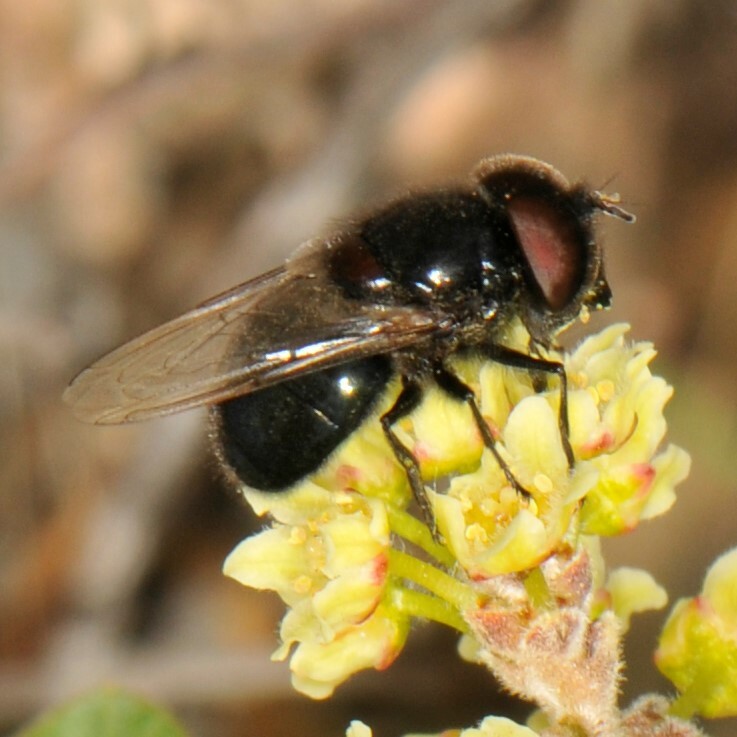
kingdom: Animalia
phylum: Arthropoda
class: Insecta
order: Diptera
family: Syrphidae
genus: Copestylum
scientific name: Copestylum comstocki
